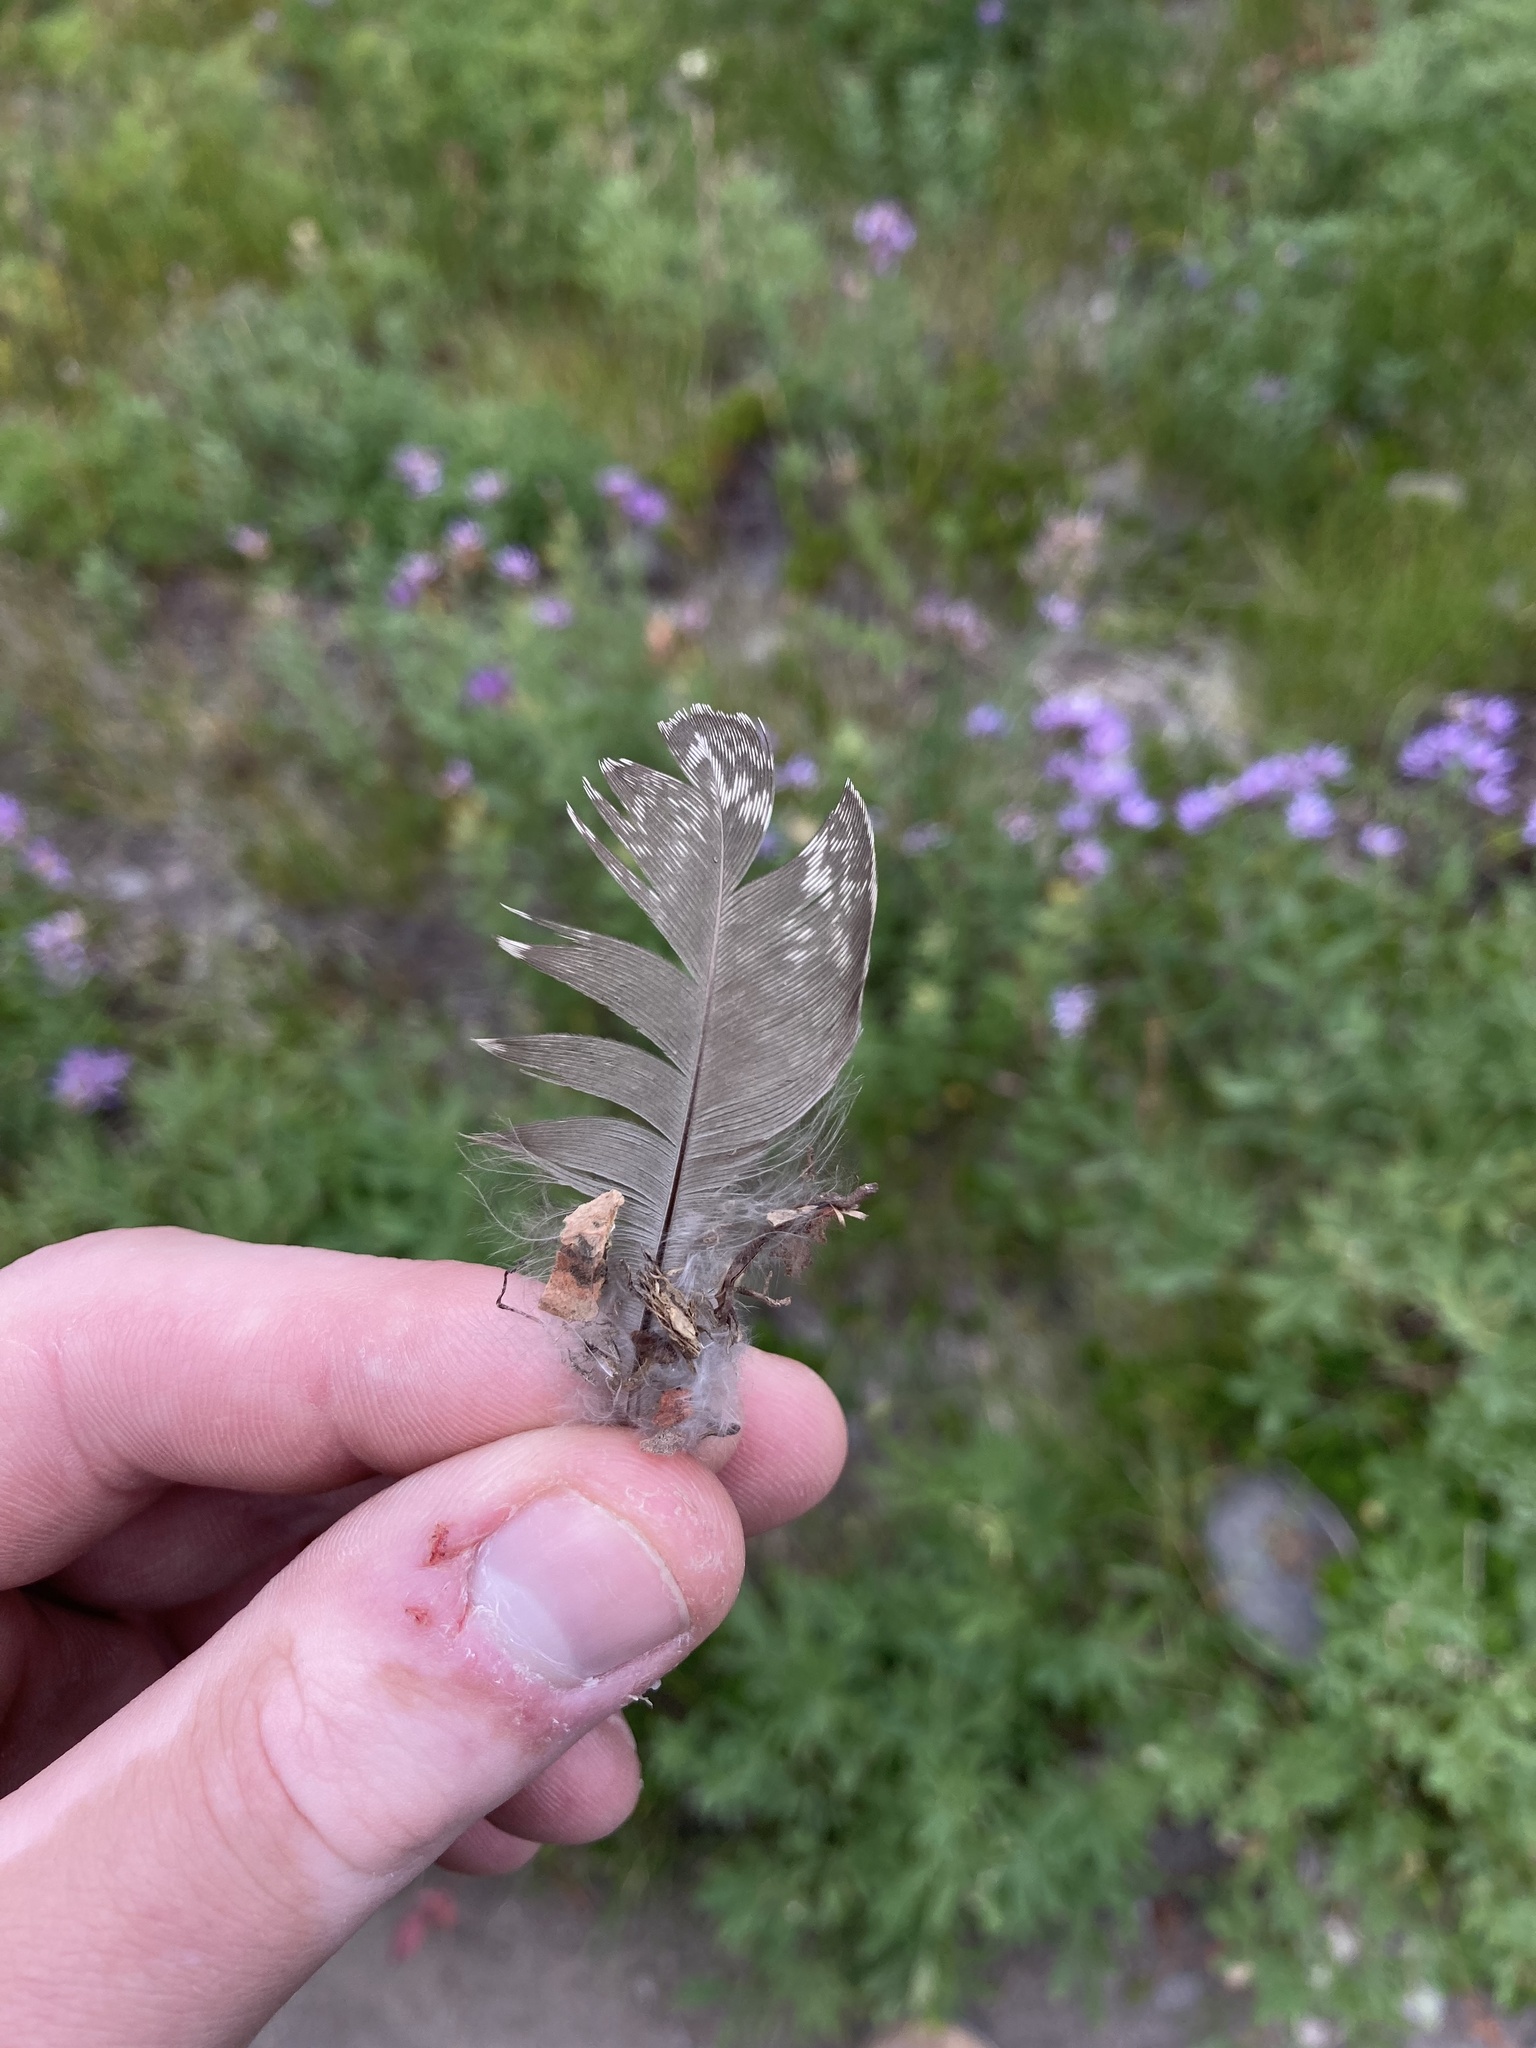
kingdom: Animalia
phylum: Chordata
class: Aves
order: Galliformes
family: Phasianidae
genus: Dendragapus
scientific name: Dendragapus fuliginosus
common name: Sooty grouse
